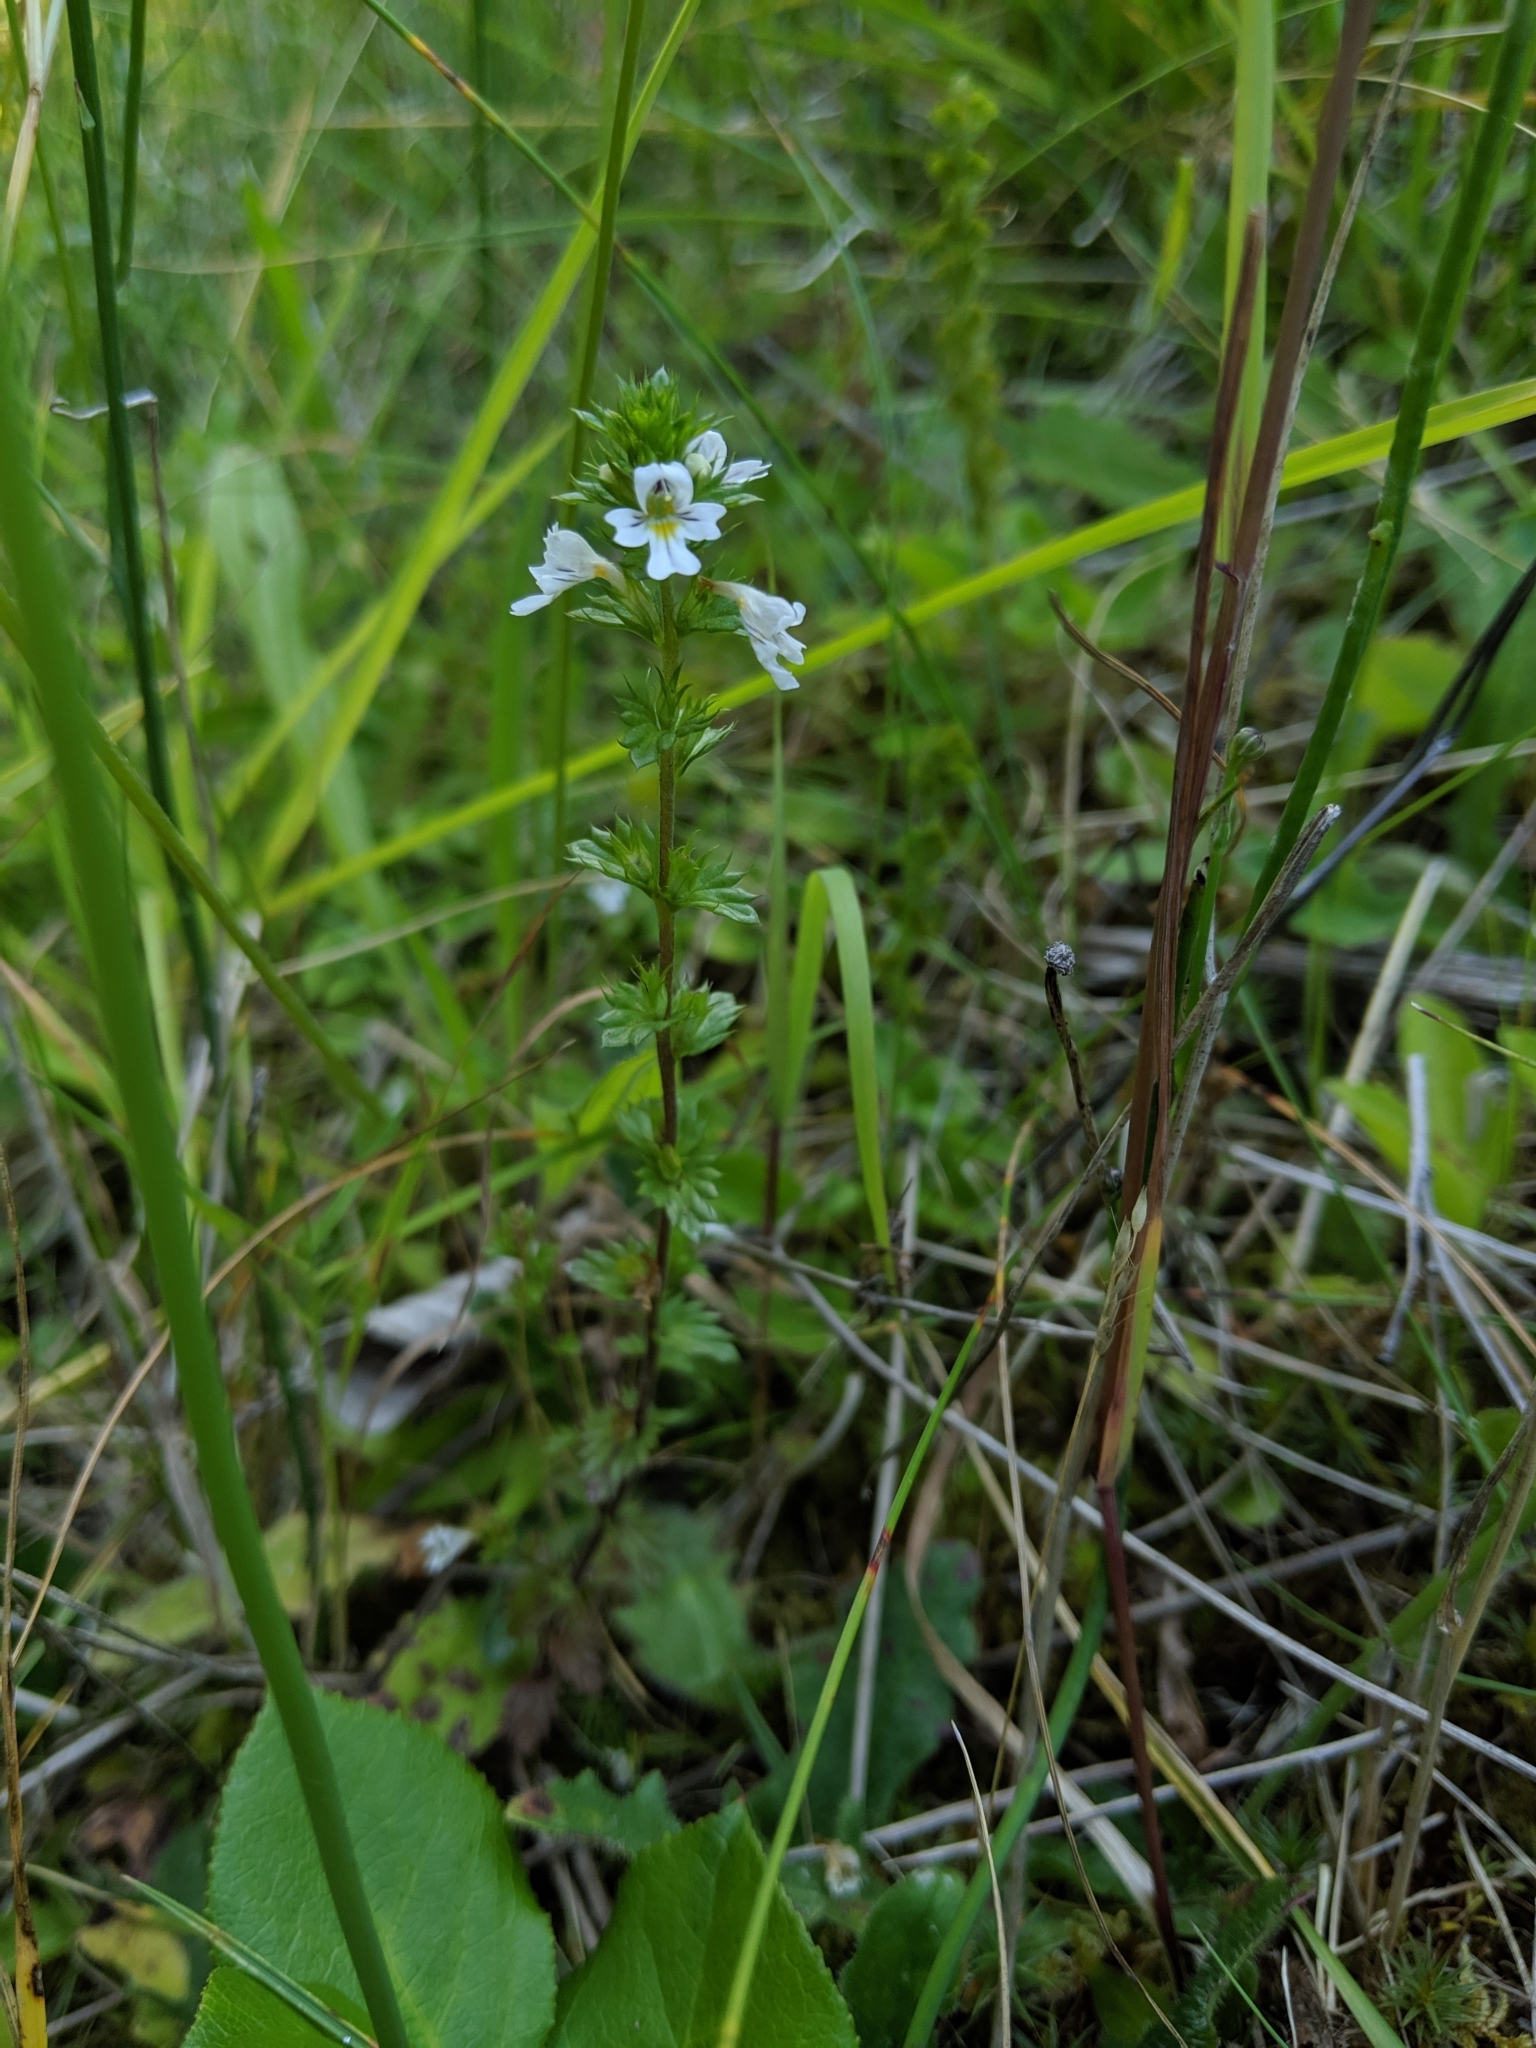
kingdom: Plantae
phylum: Tracheophyta
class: Magnoliopsida
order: Lamiales
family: Orobanchaceae
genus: Euphrasia
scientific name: Euphrasia nemorosa
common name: Common eyebright
